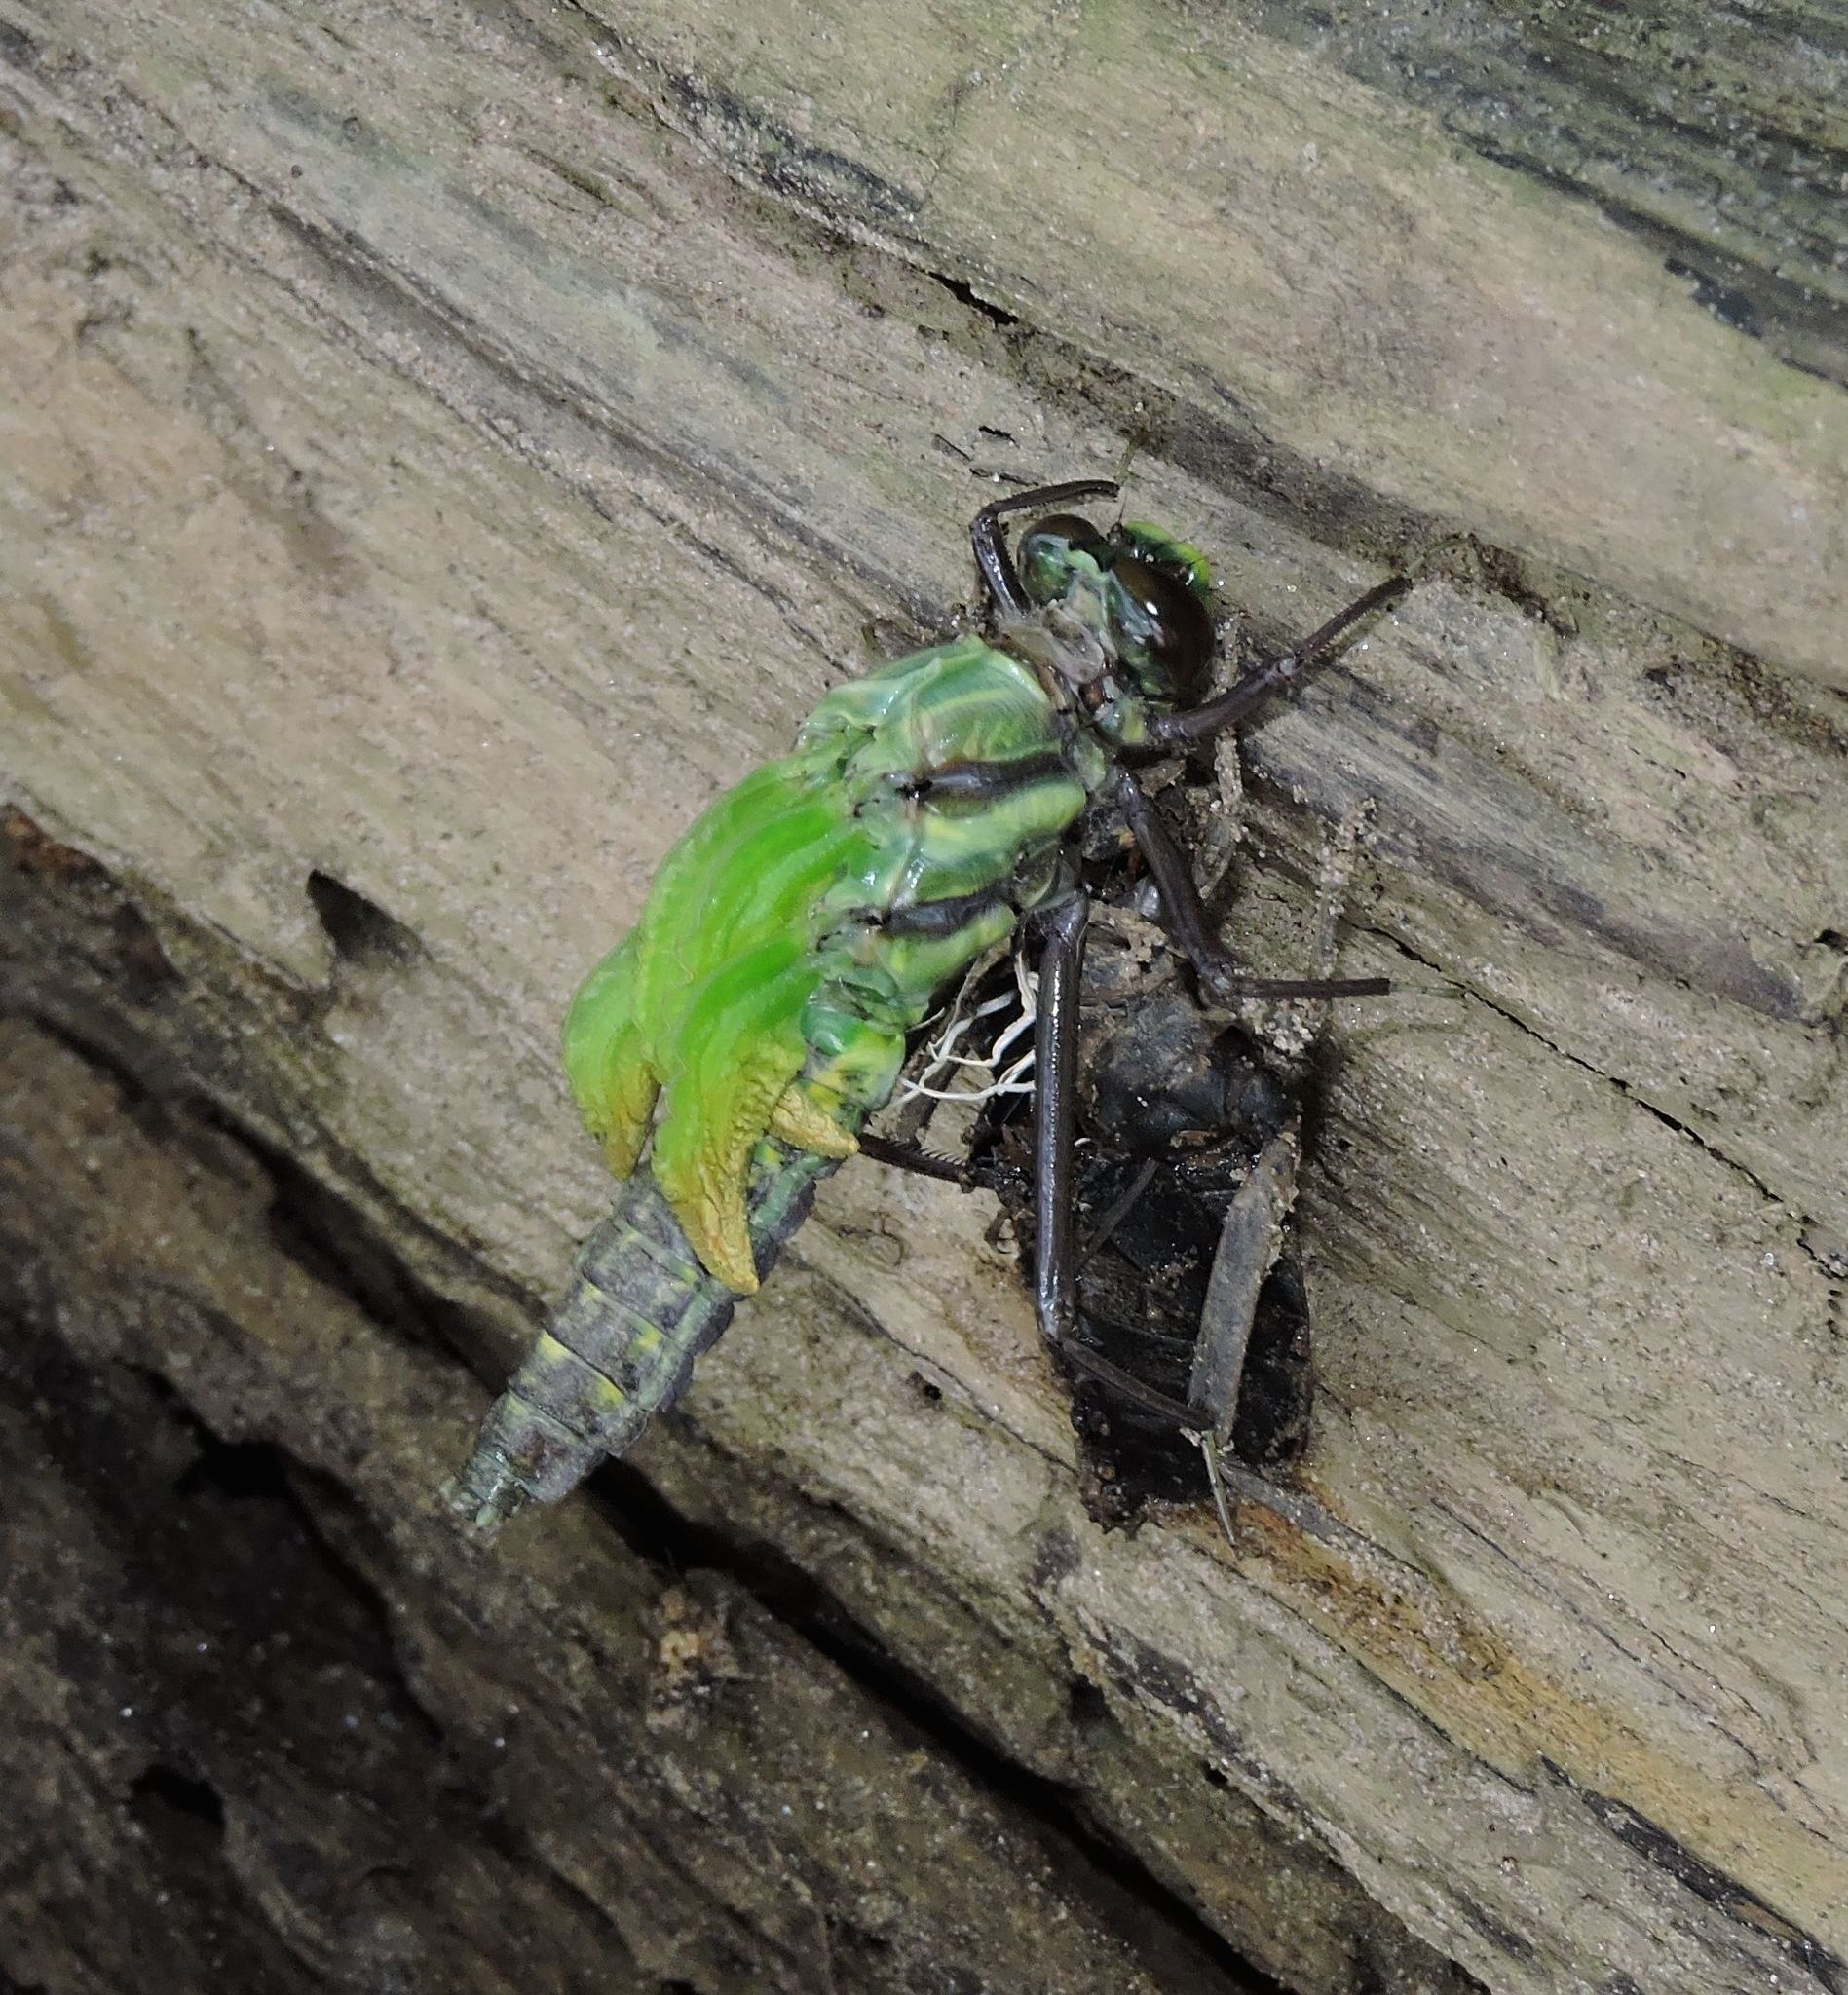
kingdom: Animalia
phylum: Arthropoda
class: Insecta
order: Odonata
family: Gomphidae
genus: Hagenius
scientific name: Hagenius brevistylus
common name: Dragonhunter
